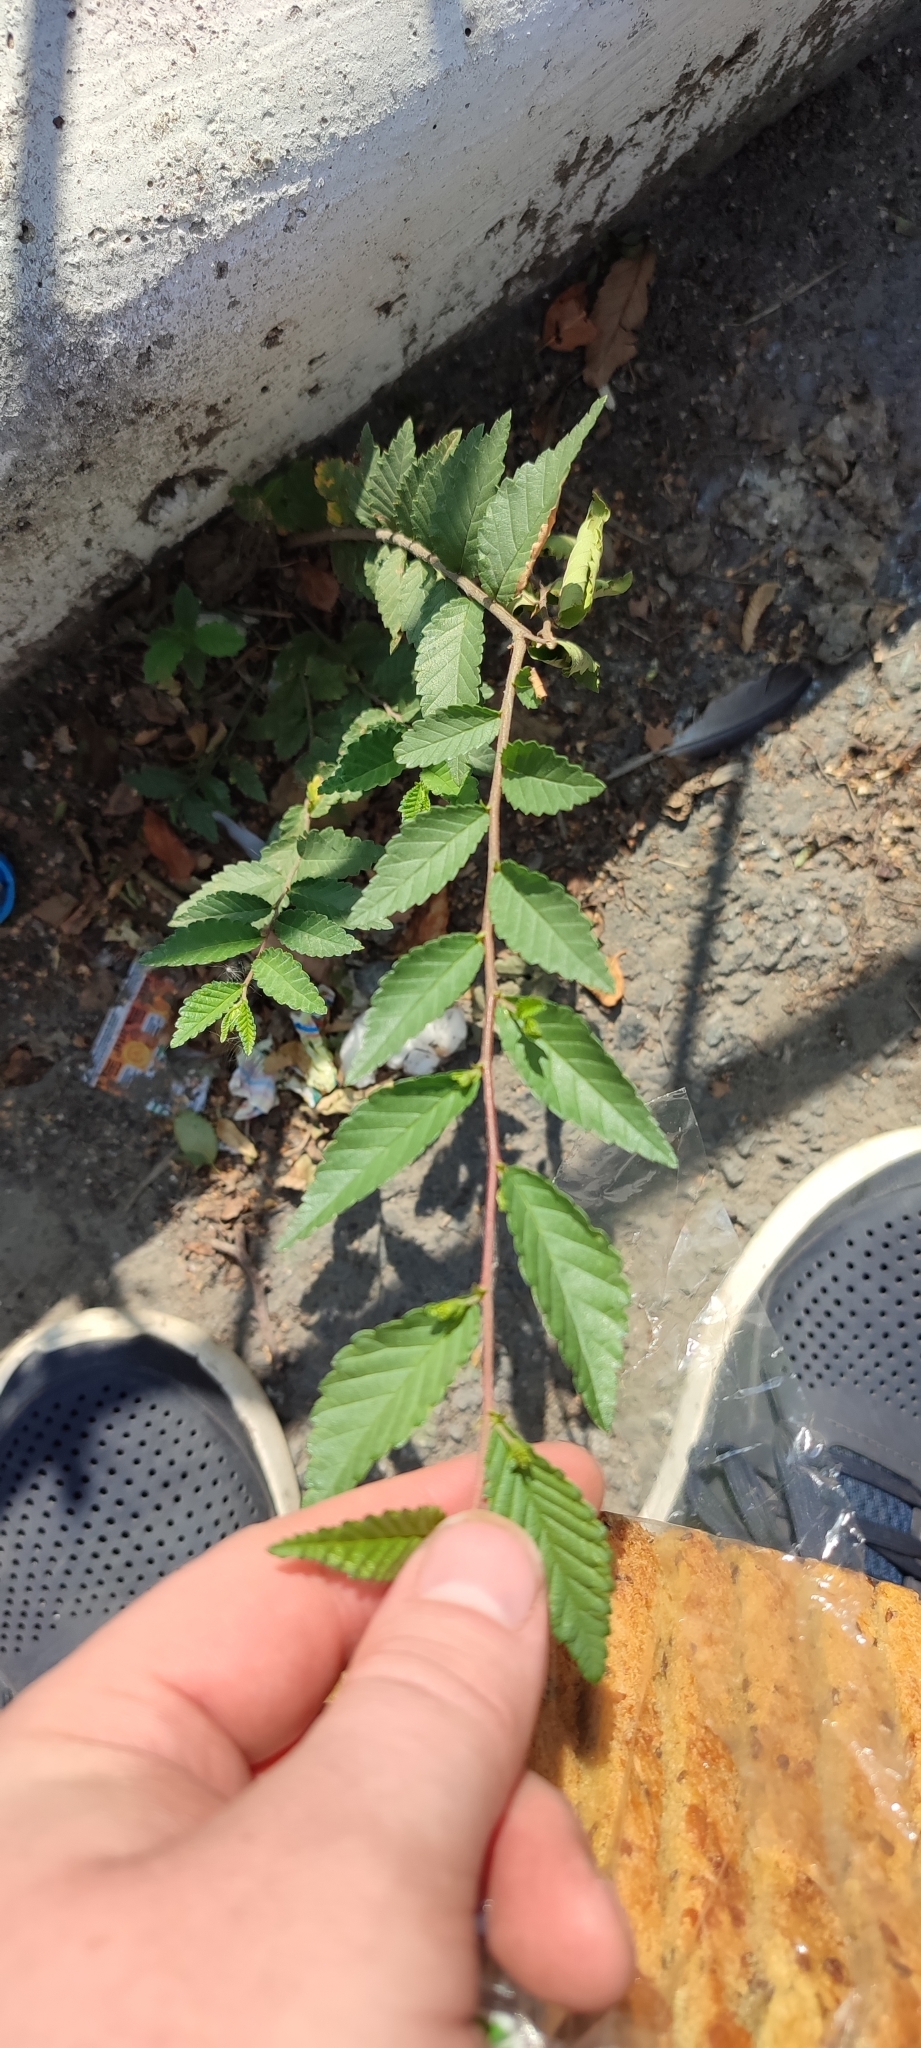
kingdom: Plantae
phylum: Tracheophyta
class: Magnoliopsida
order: Rosales
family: Ulmaceae
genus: Ulmus
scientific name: Ulmus pumila
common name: Siberian elm
